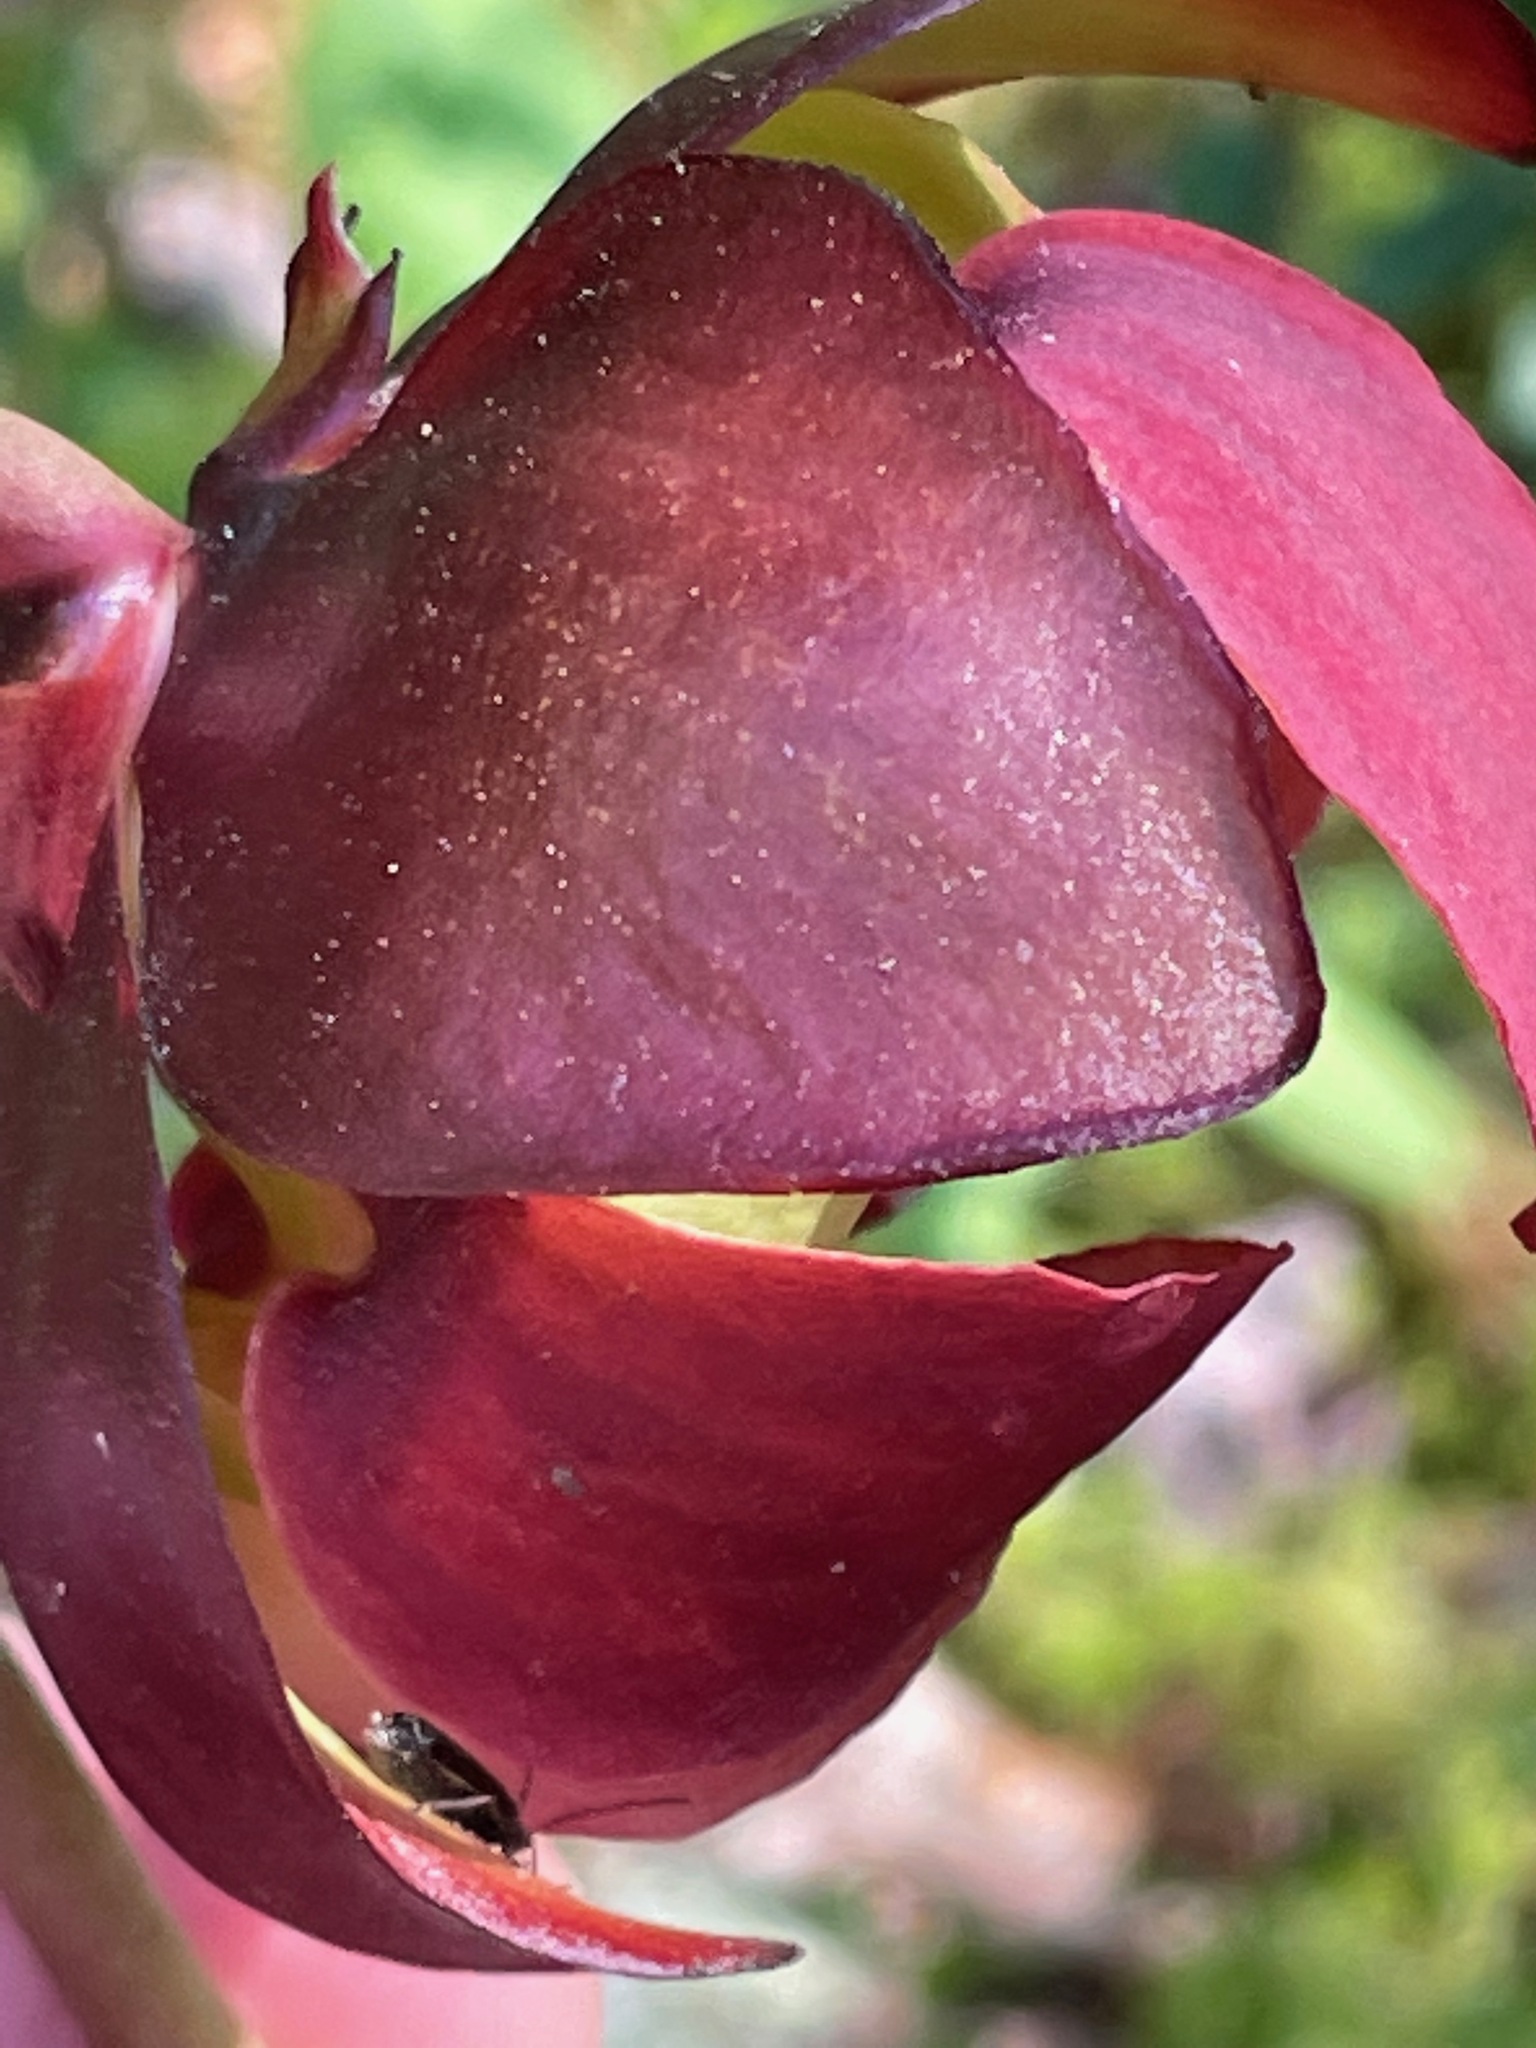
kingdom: Plantae
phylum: Tracheophyta
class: Magnoliopsida
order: Ericales
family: Sarraceniaceae
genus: Sarracenia
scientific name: Sarracenia purpurea
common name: Pitcherplant
